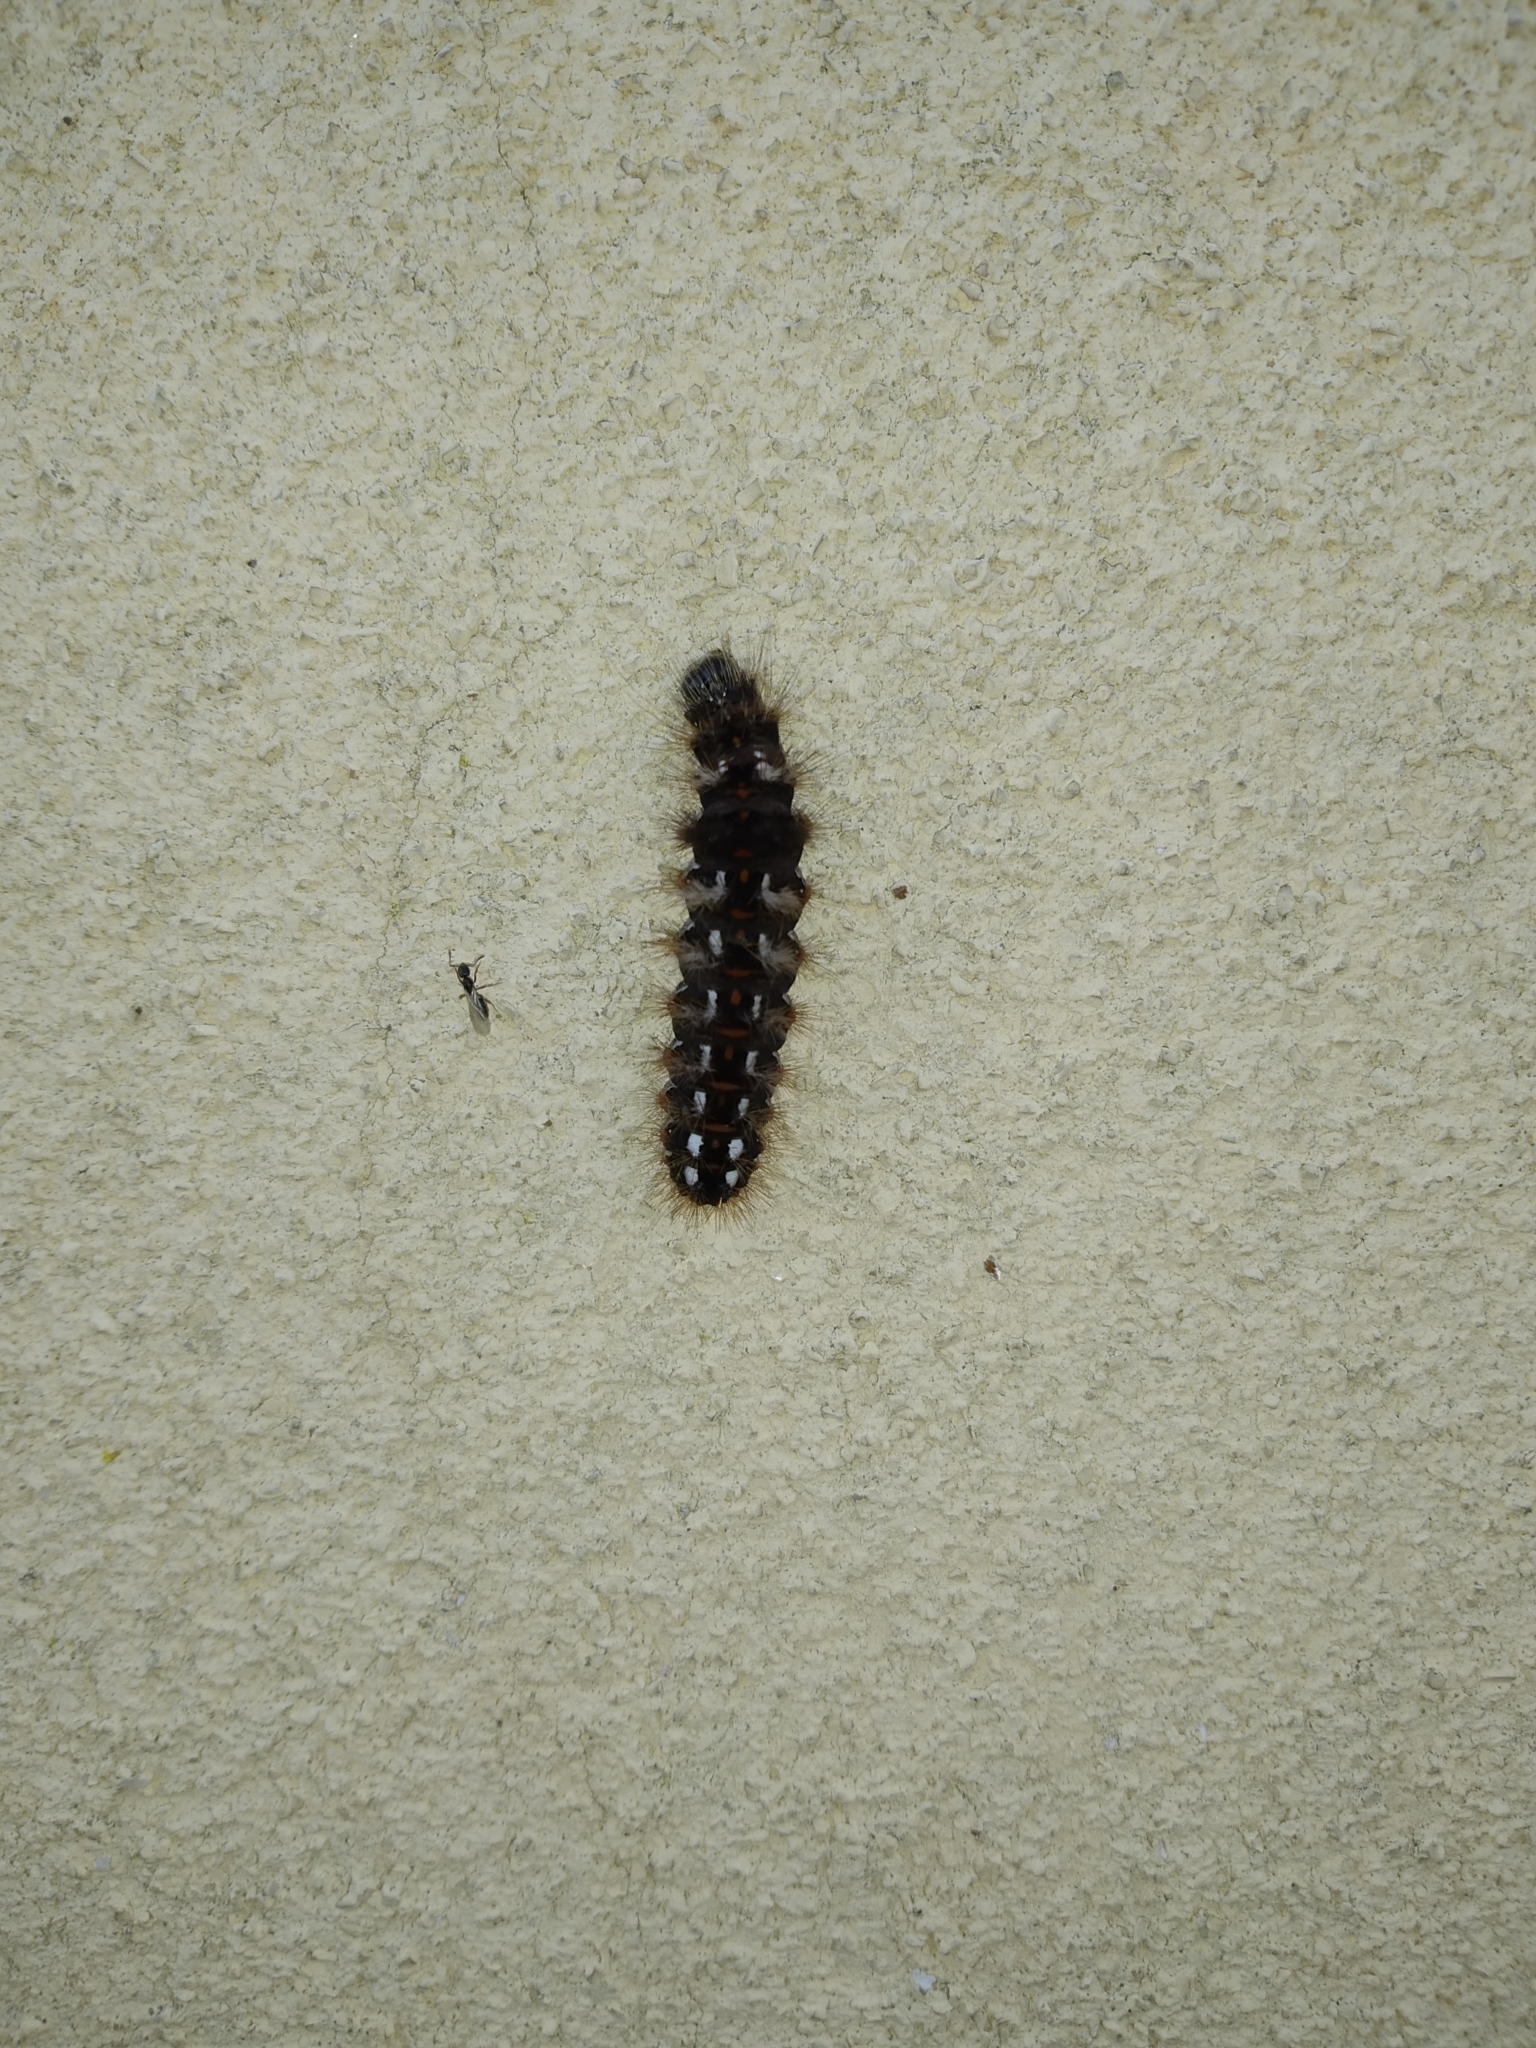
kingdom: Animalia
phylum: Arthropoda
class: Insecta
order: Lepidoptera
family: Noctuidae
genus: Acronicta
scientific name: Acronicta rumicis
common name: Knot grass
